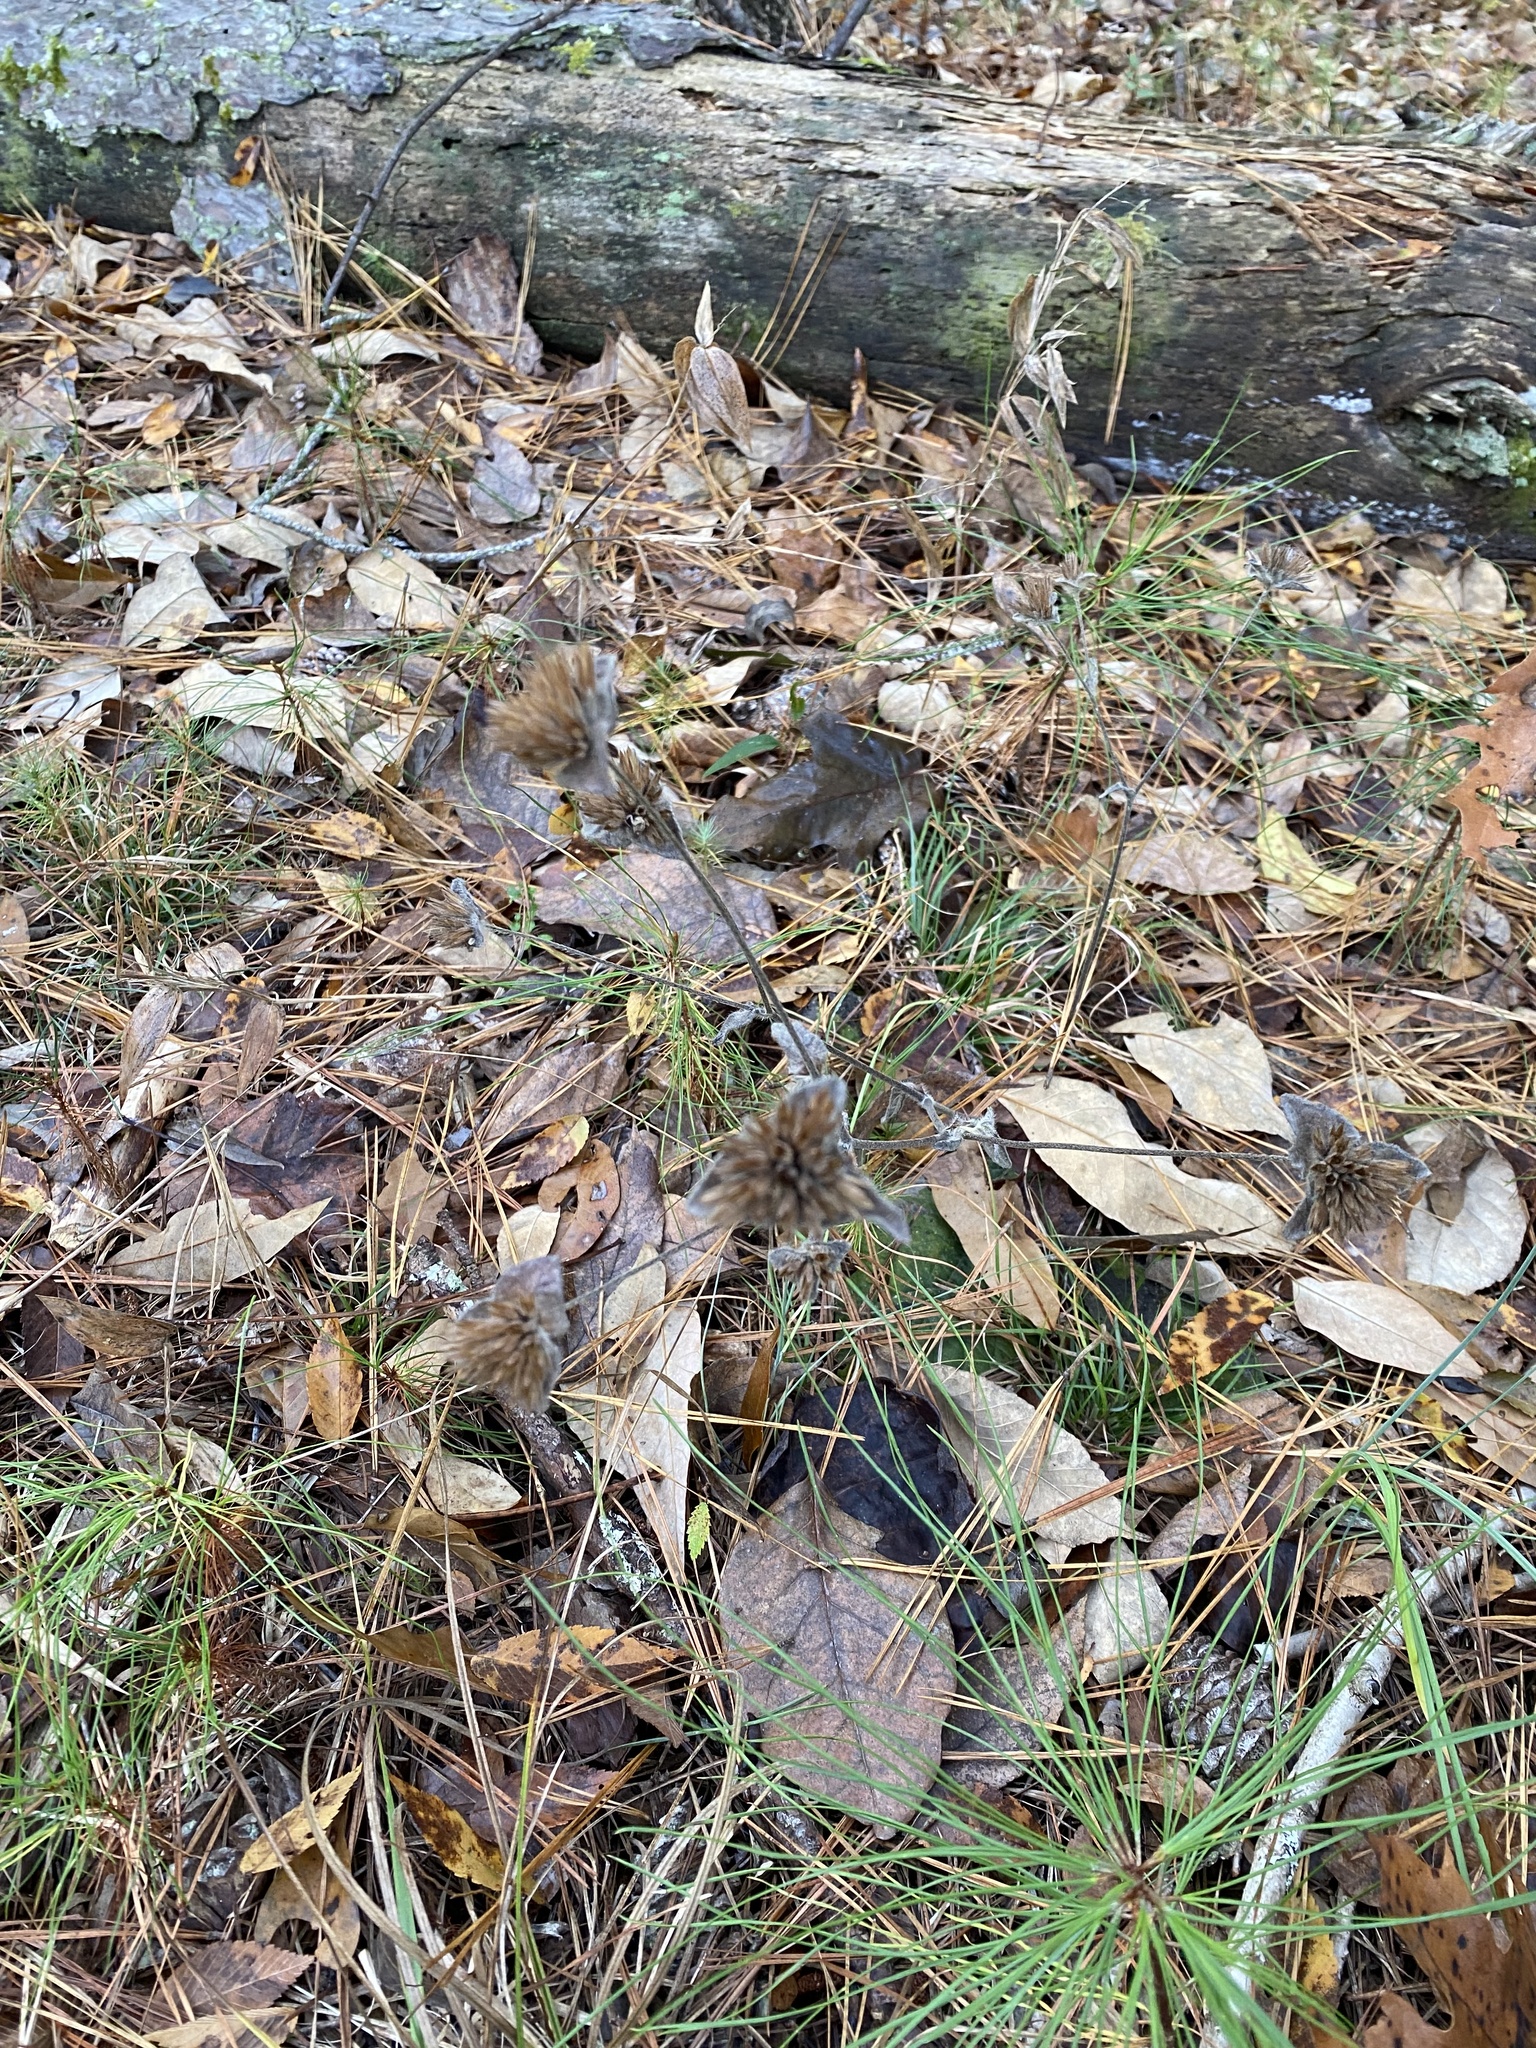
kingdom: Plantae
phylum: Tracheophyta
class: Magnoliopsida
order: Asterales
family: Asteraceae
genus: Elephantopus
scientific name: Elephantopus tomentosus
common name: Tobacco-weed
